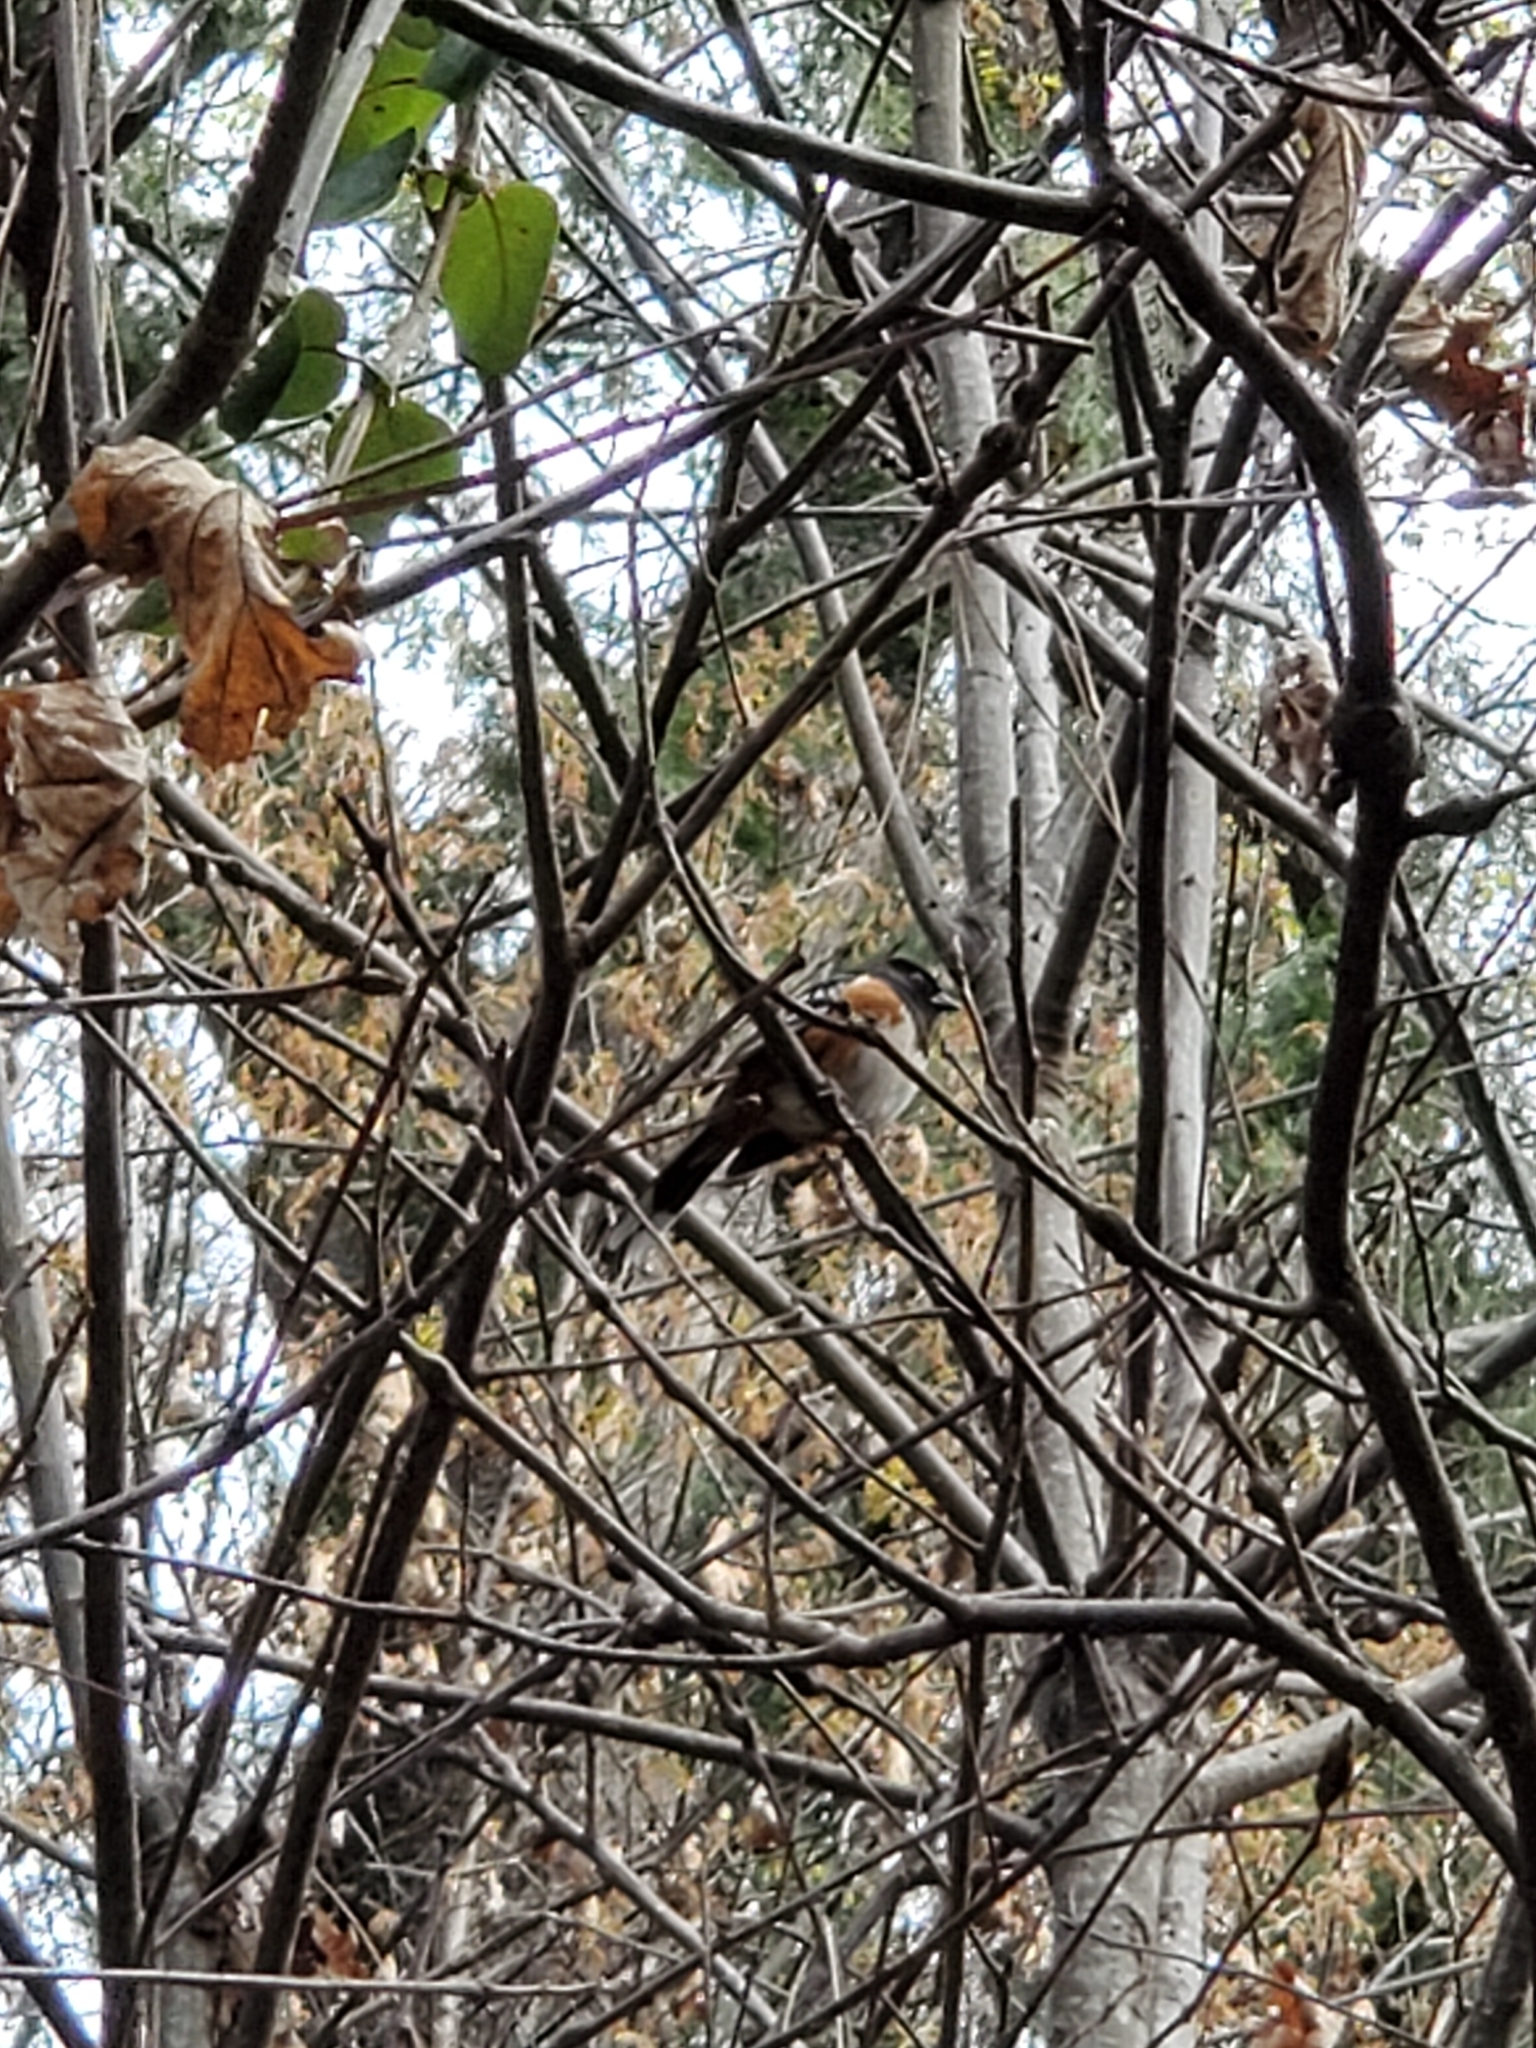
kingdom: Animalia
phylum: Chordata
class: Aves
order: Passeriformes
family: Passerellidae
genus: Pipilo
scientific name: Pipilo maculatus
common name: Spotted towhee
